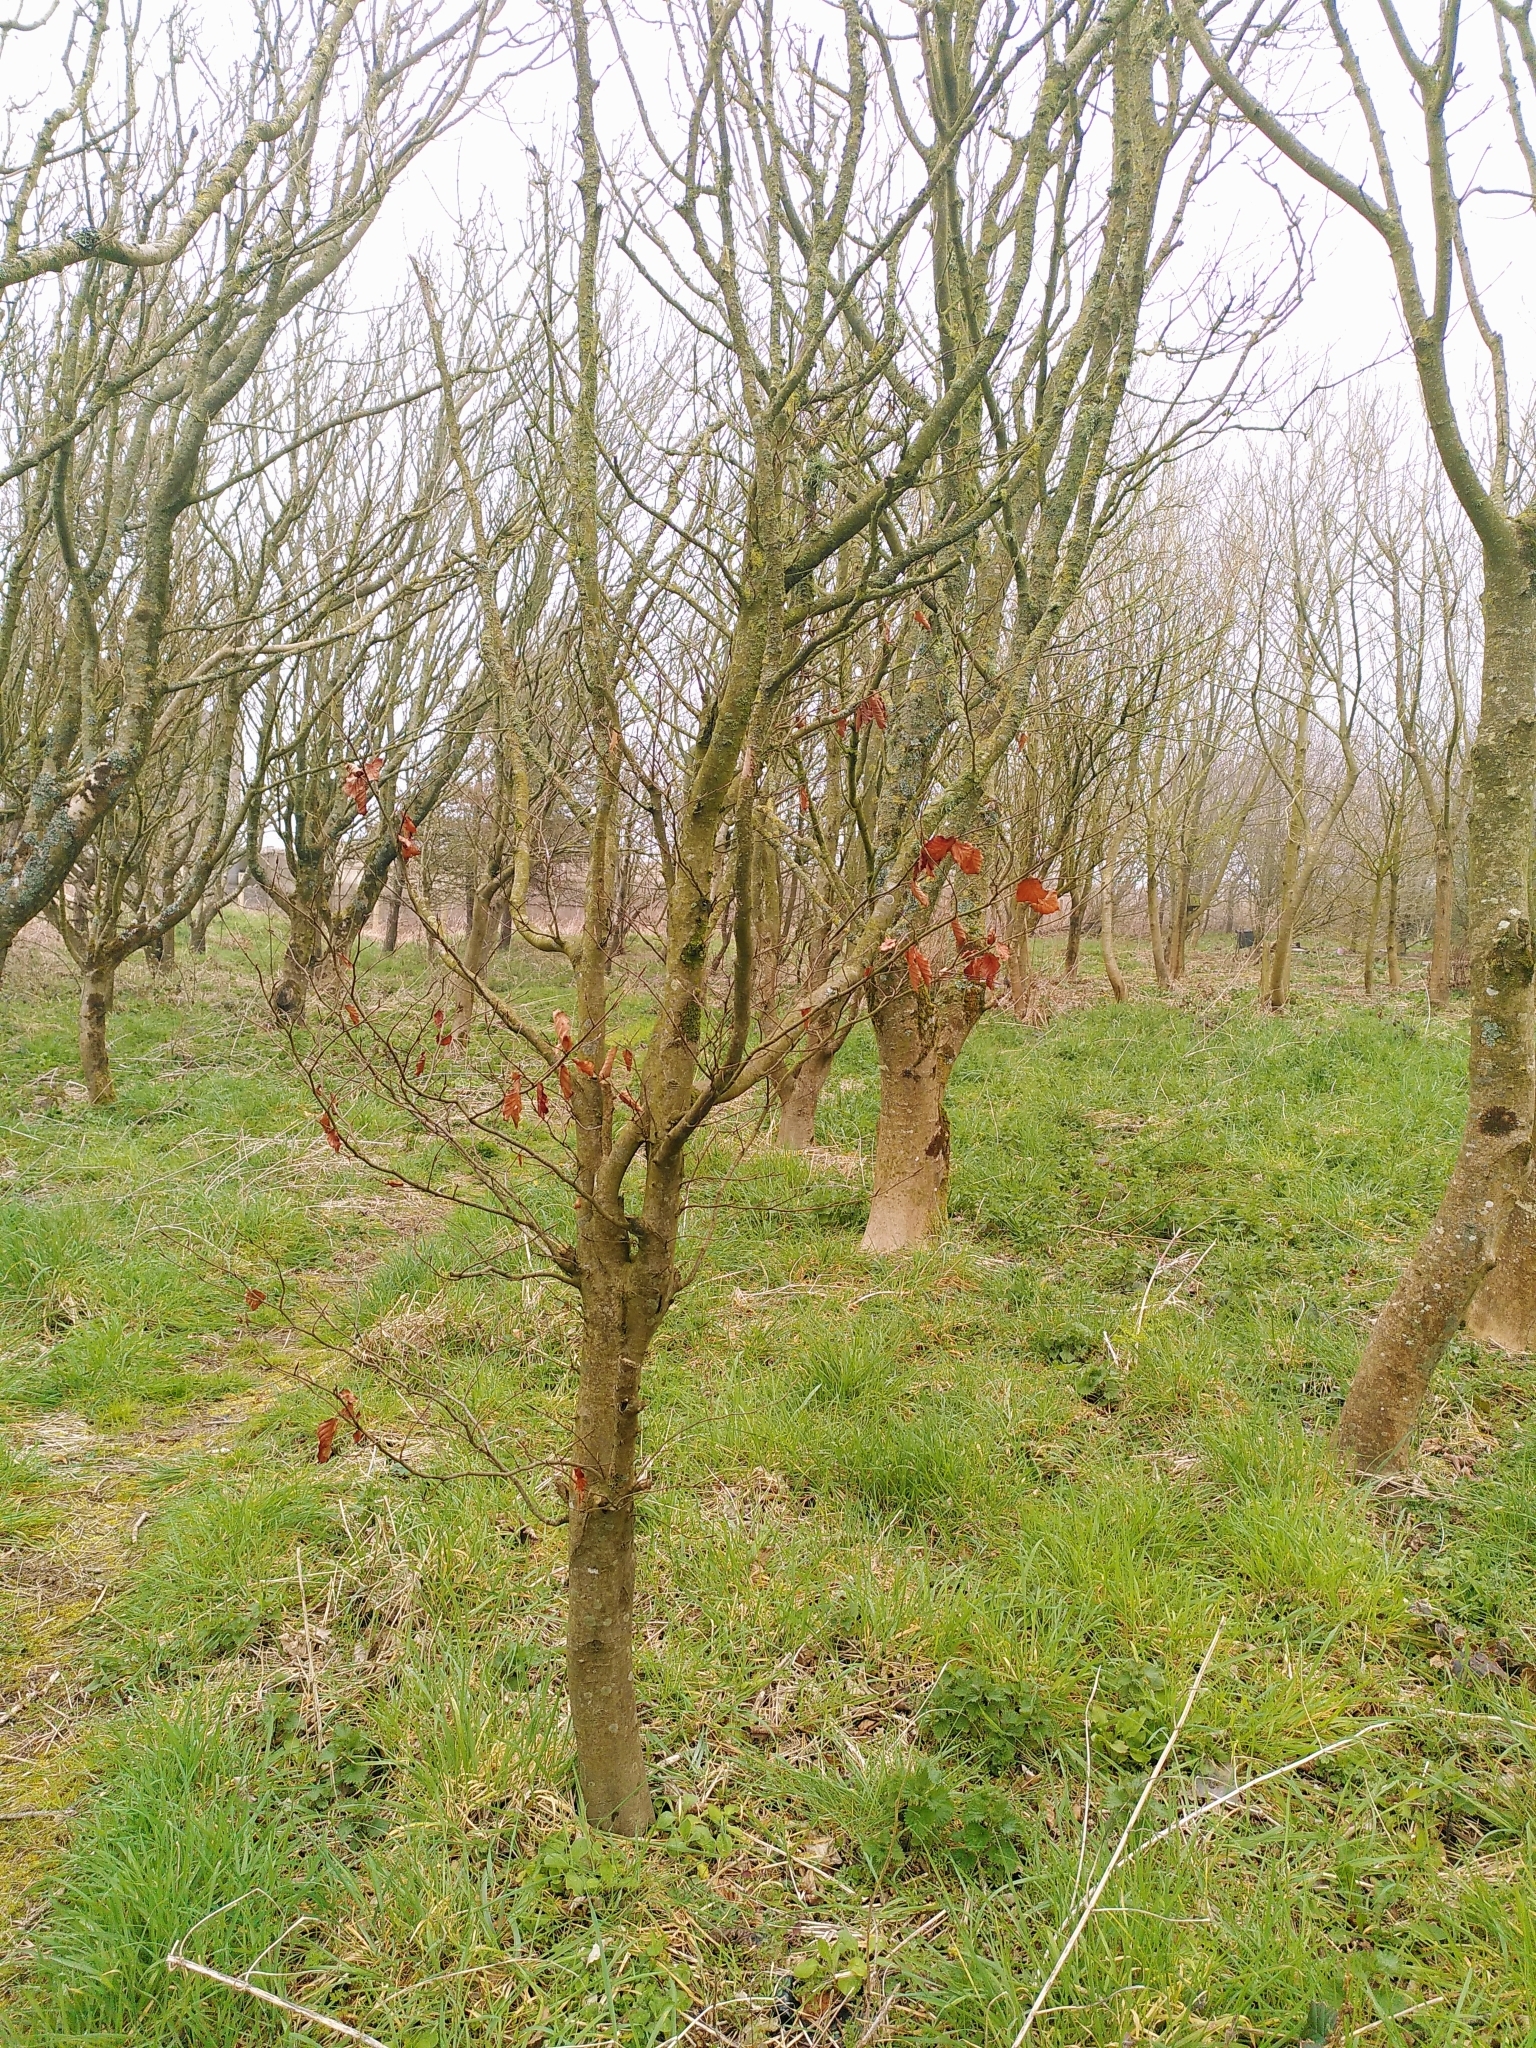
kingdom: Plantae
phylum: Tracheophyta
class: Magnoliopsida
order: Fagales
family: Fagaceae
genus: Fagus
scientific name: Fagus sylvatica
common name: Beech
